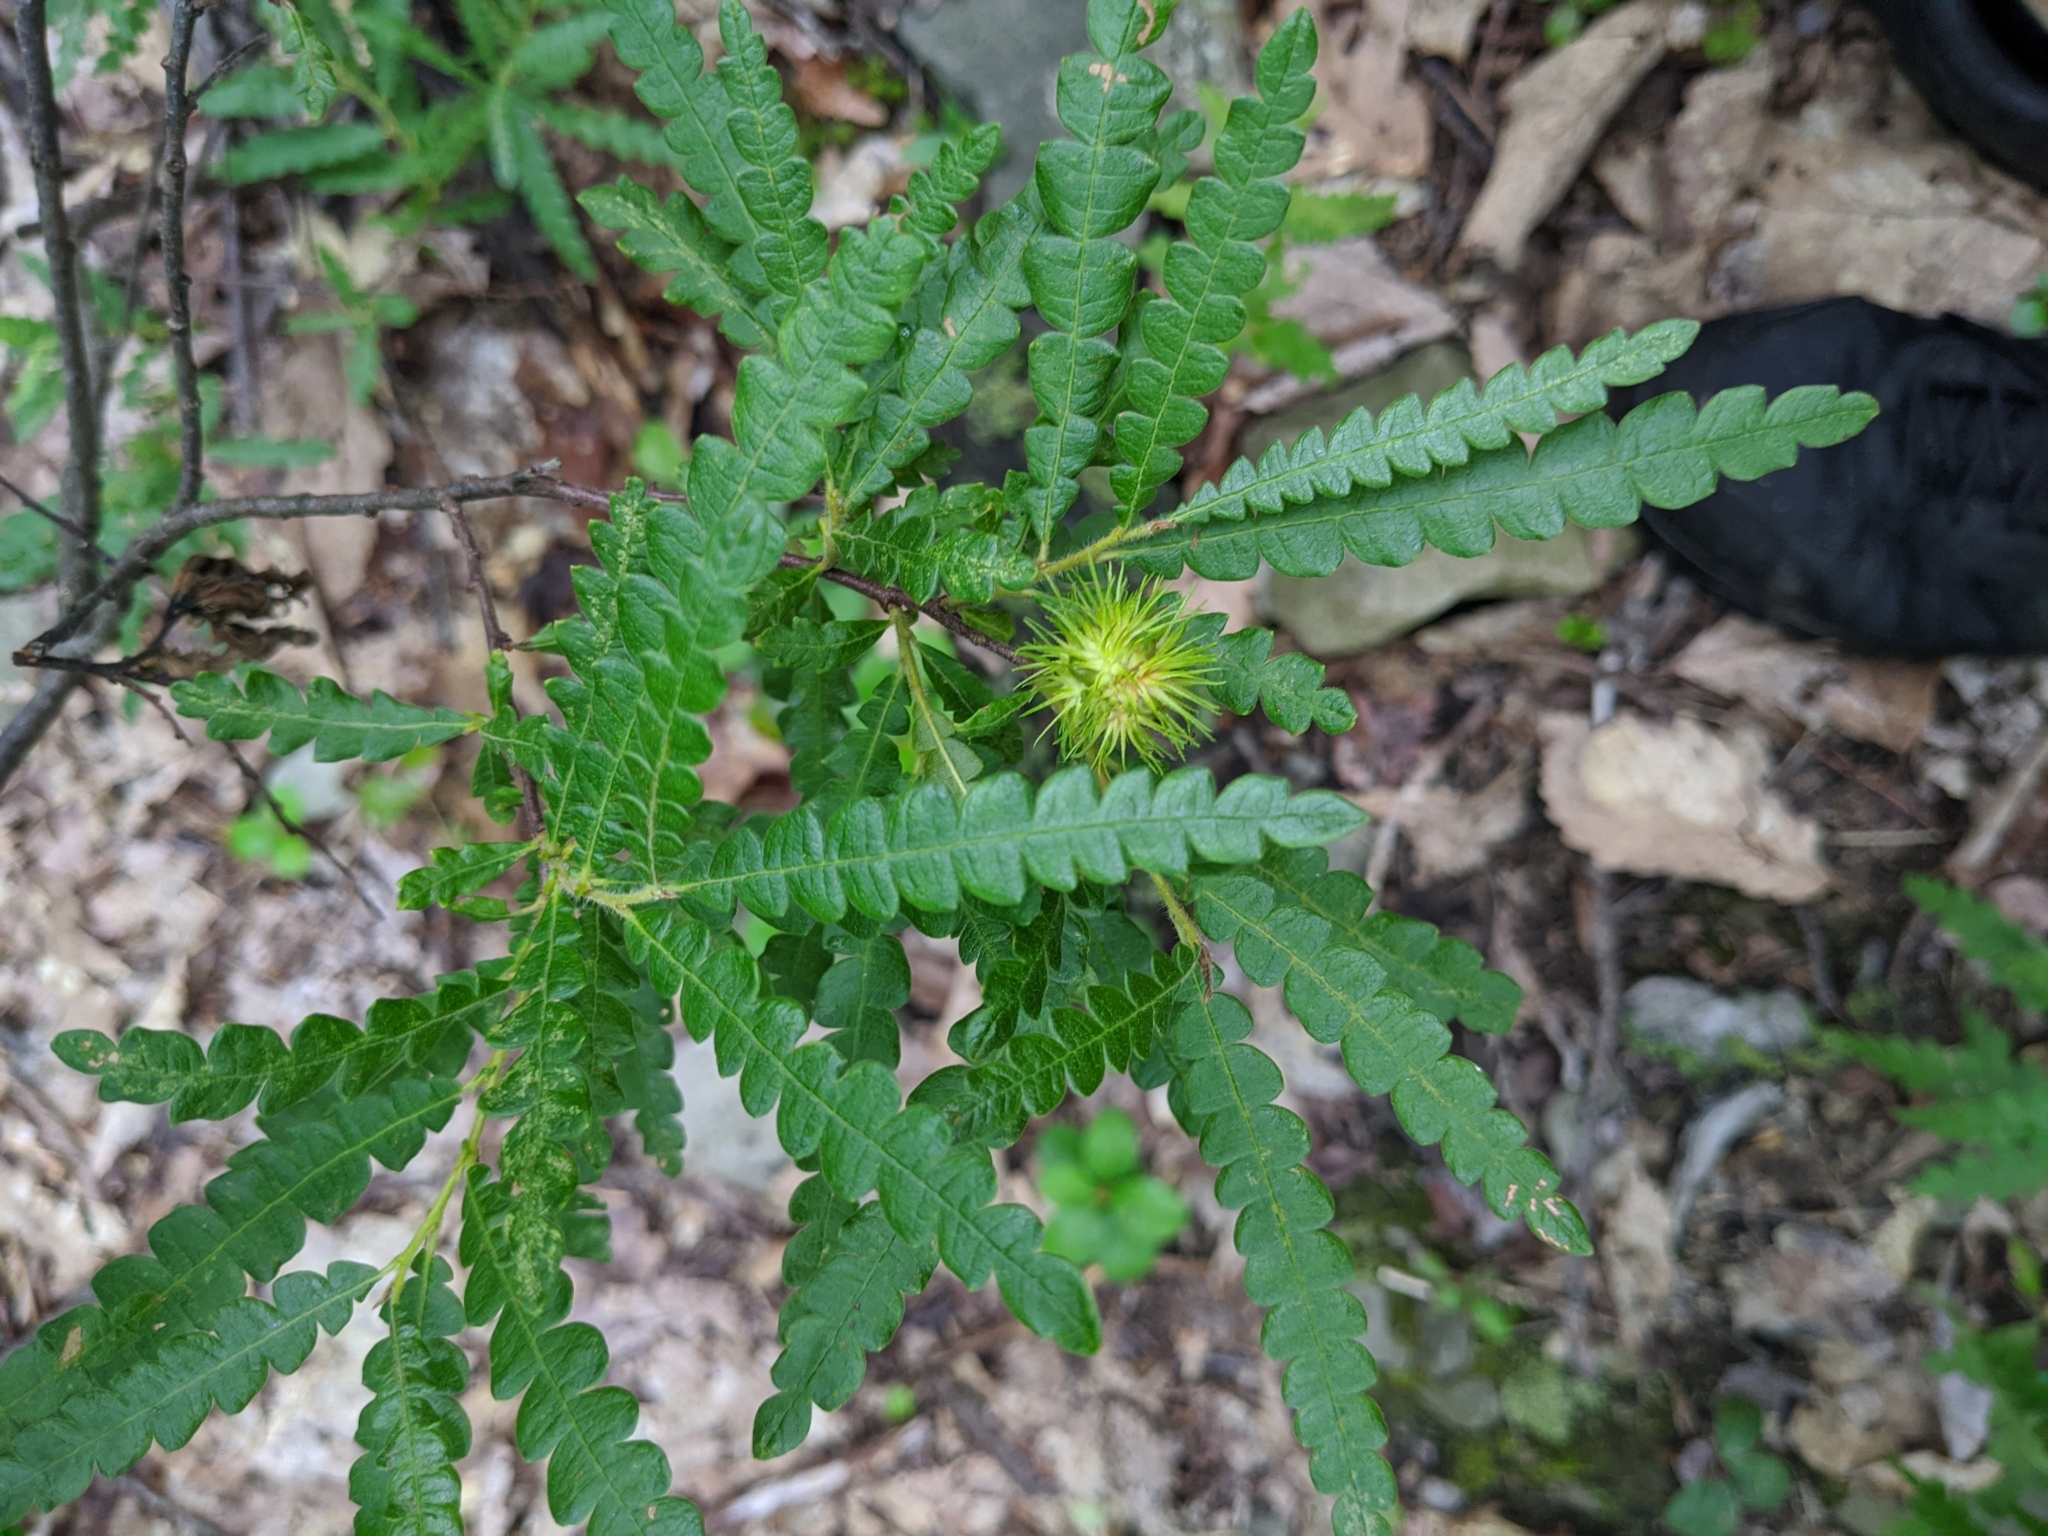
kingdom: Plantae
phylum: Tracheophyta
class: Magnoliopsida
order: Fagales
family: Myricaceae
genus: Comptonia
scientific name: Comptonia peregrina
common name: Sweet-fern
